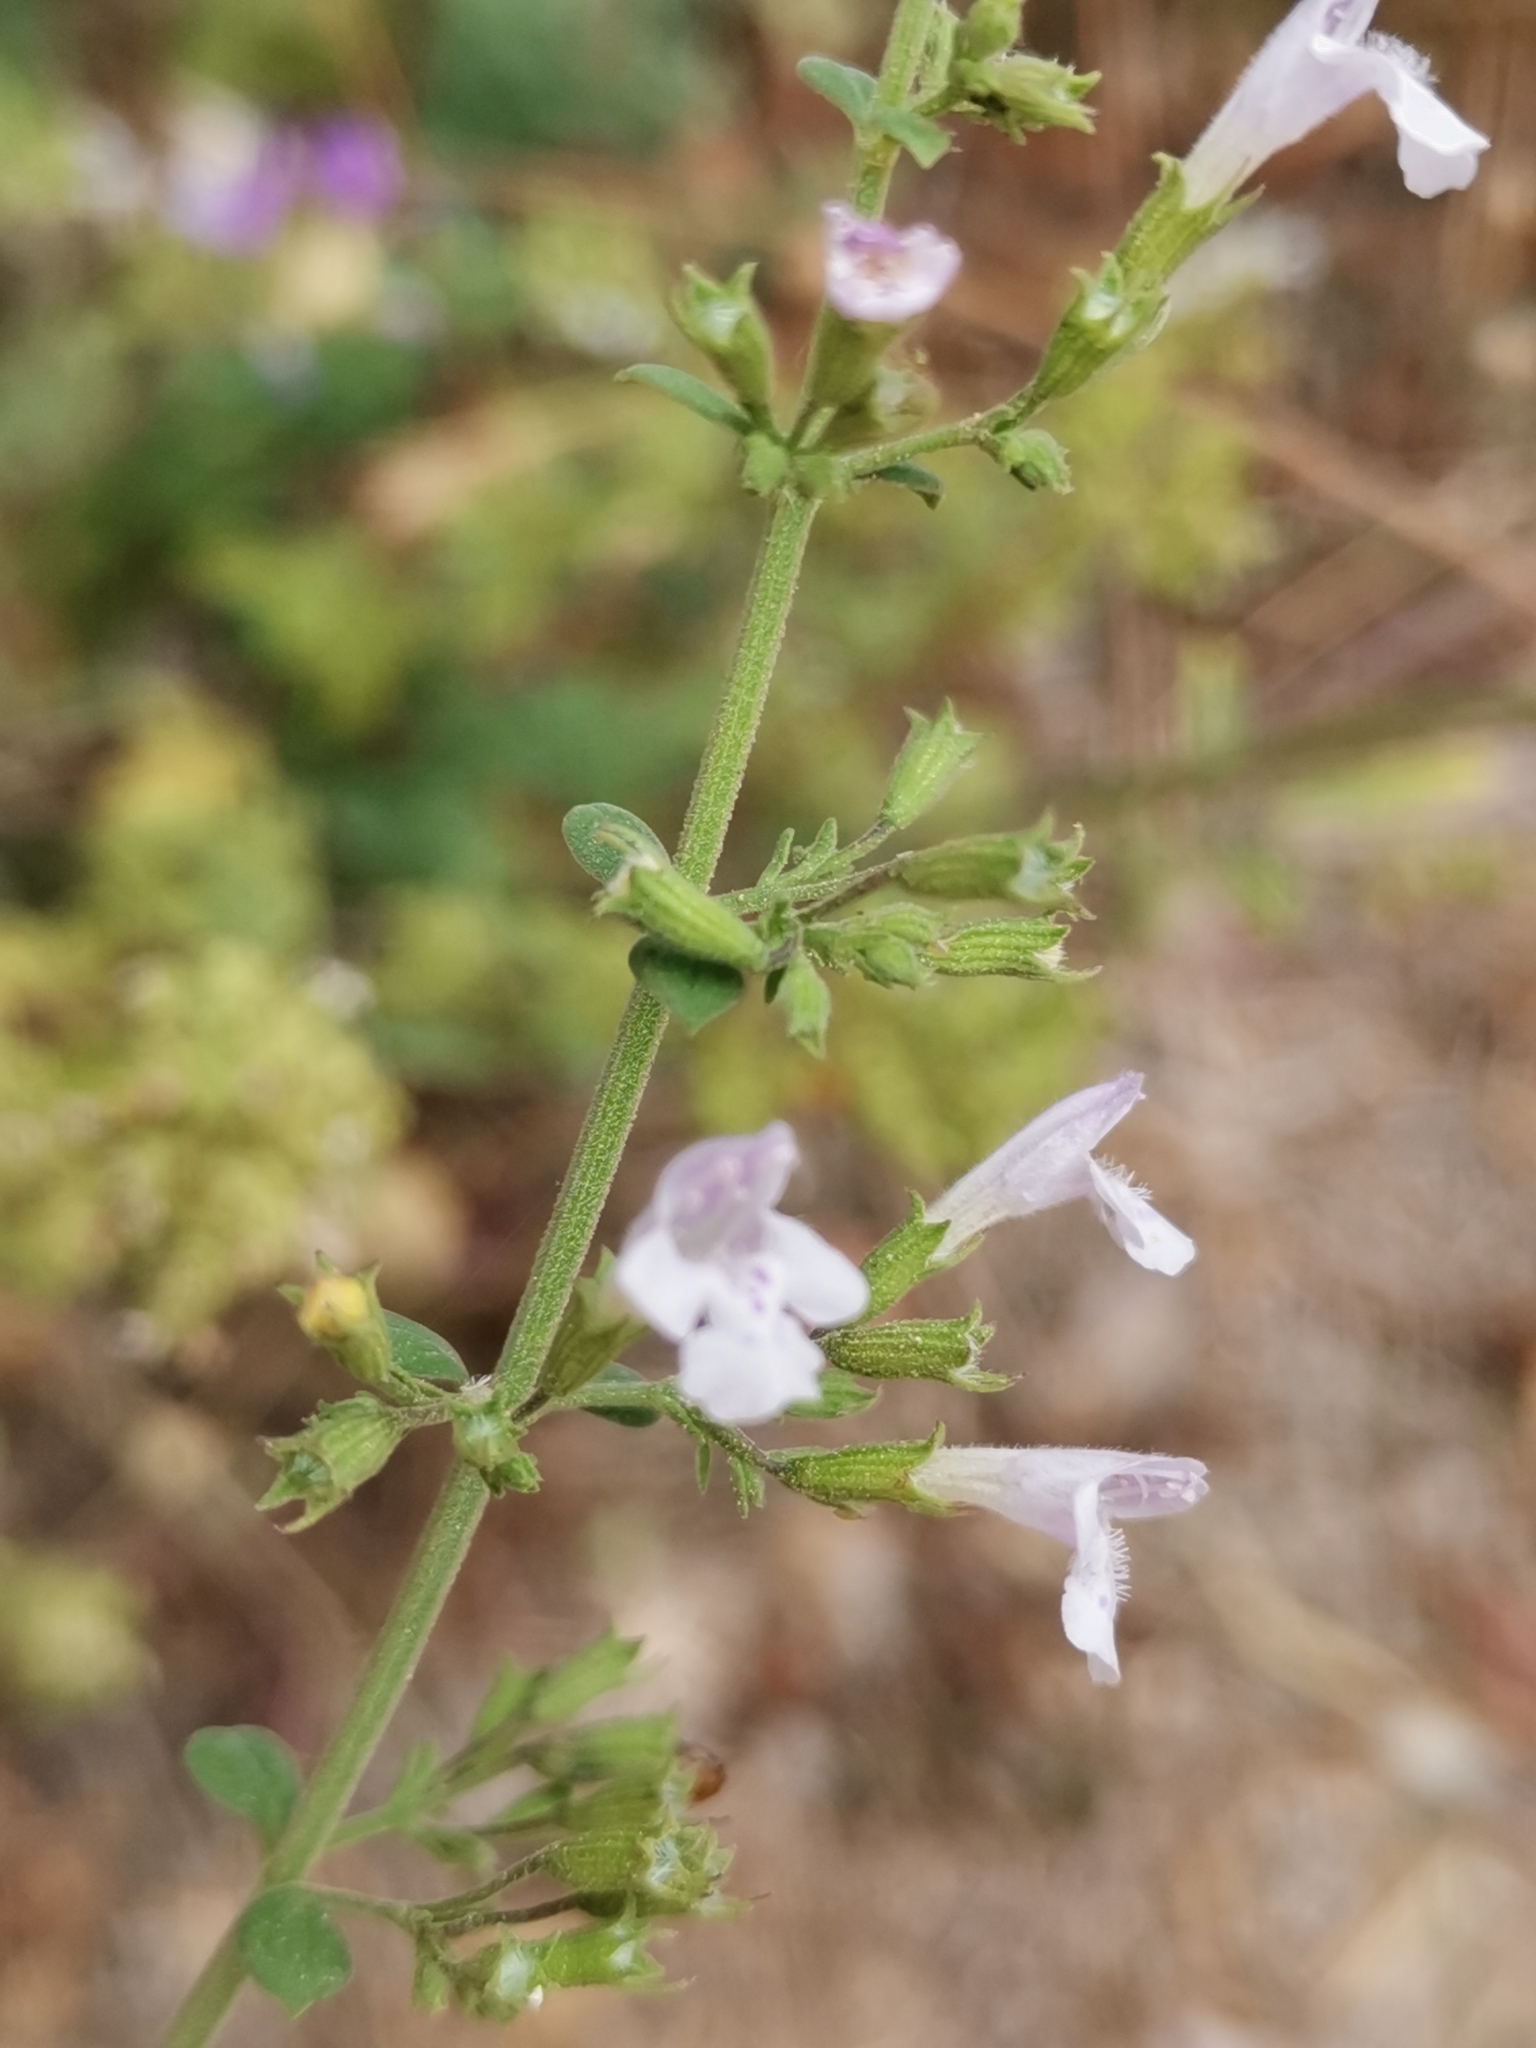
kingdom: Plantae
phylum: Tracheophyta
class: Magnoliopsida
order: Lamiales
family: Lamiaceae
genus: Clinopodium
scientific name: Clinopodium nepeta
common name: Lesser calamint
